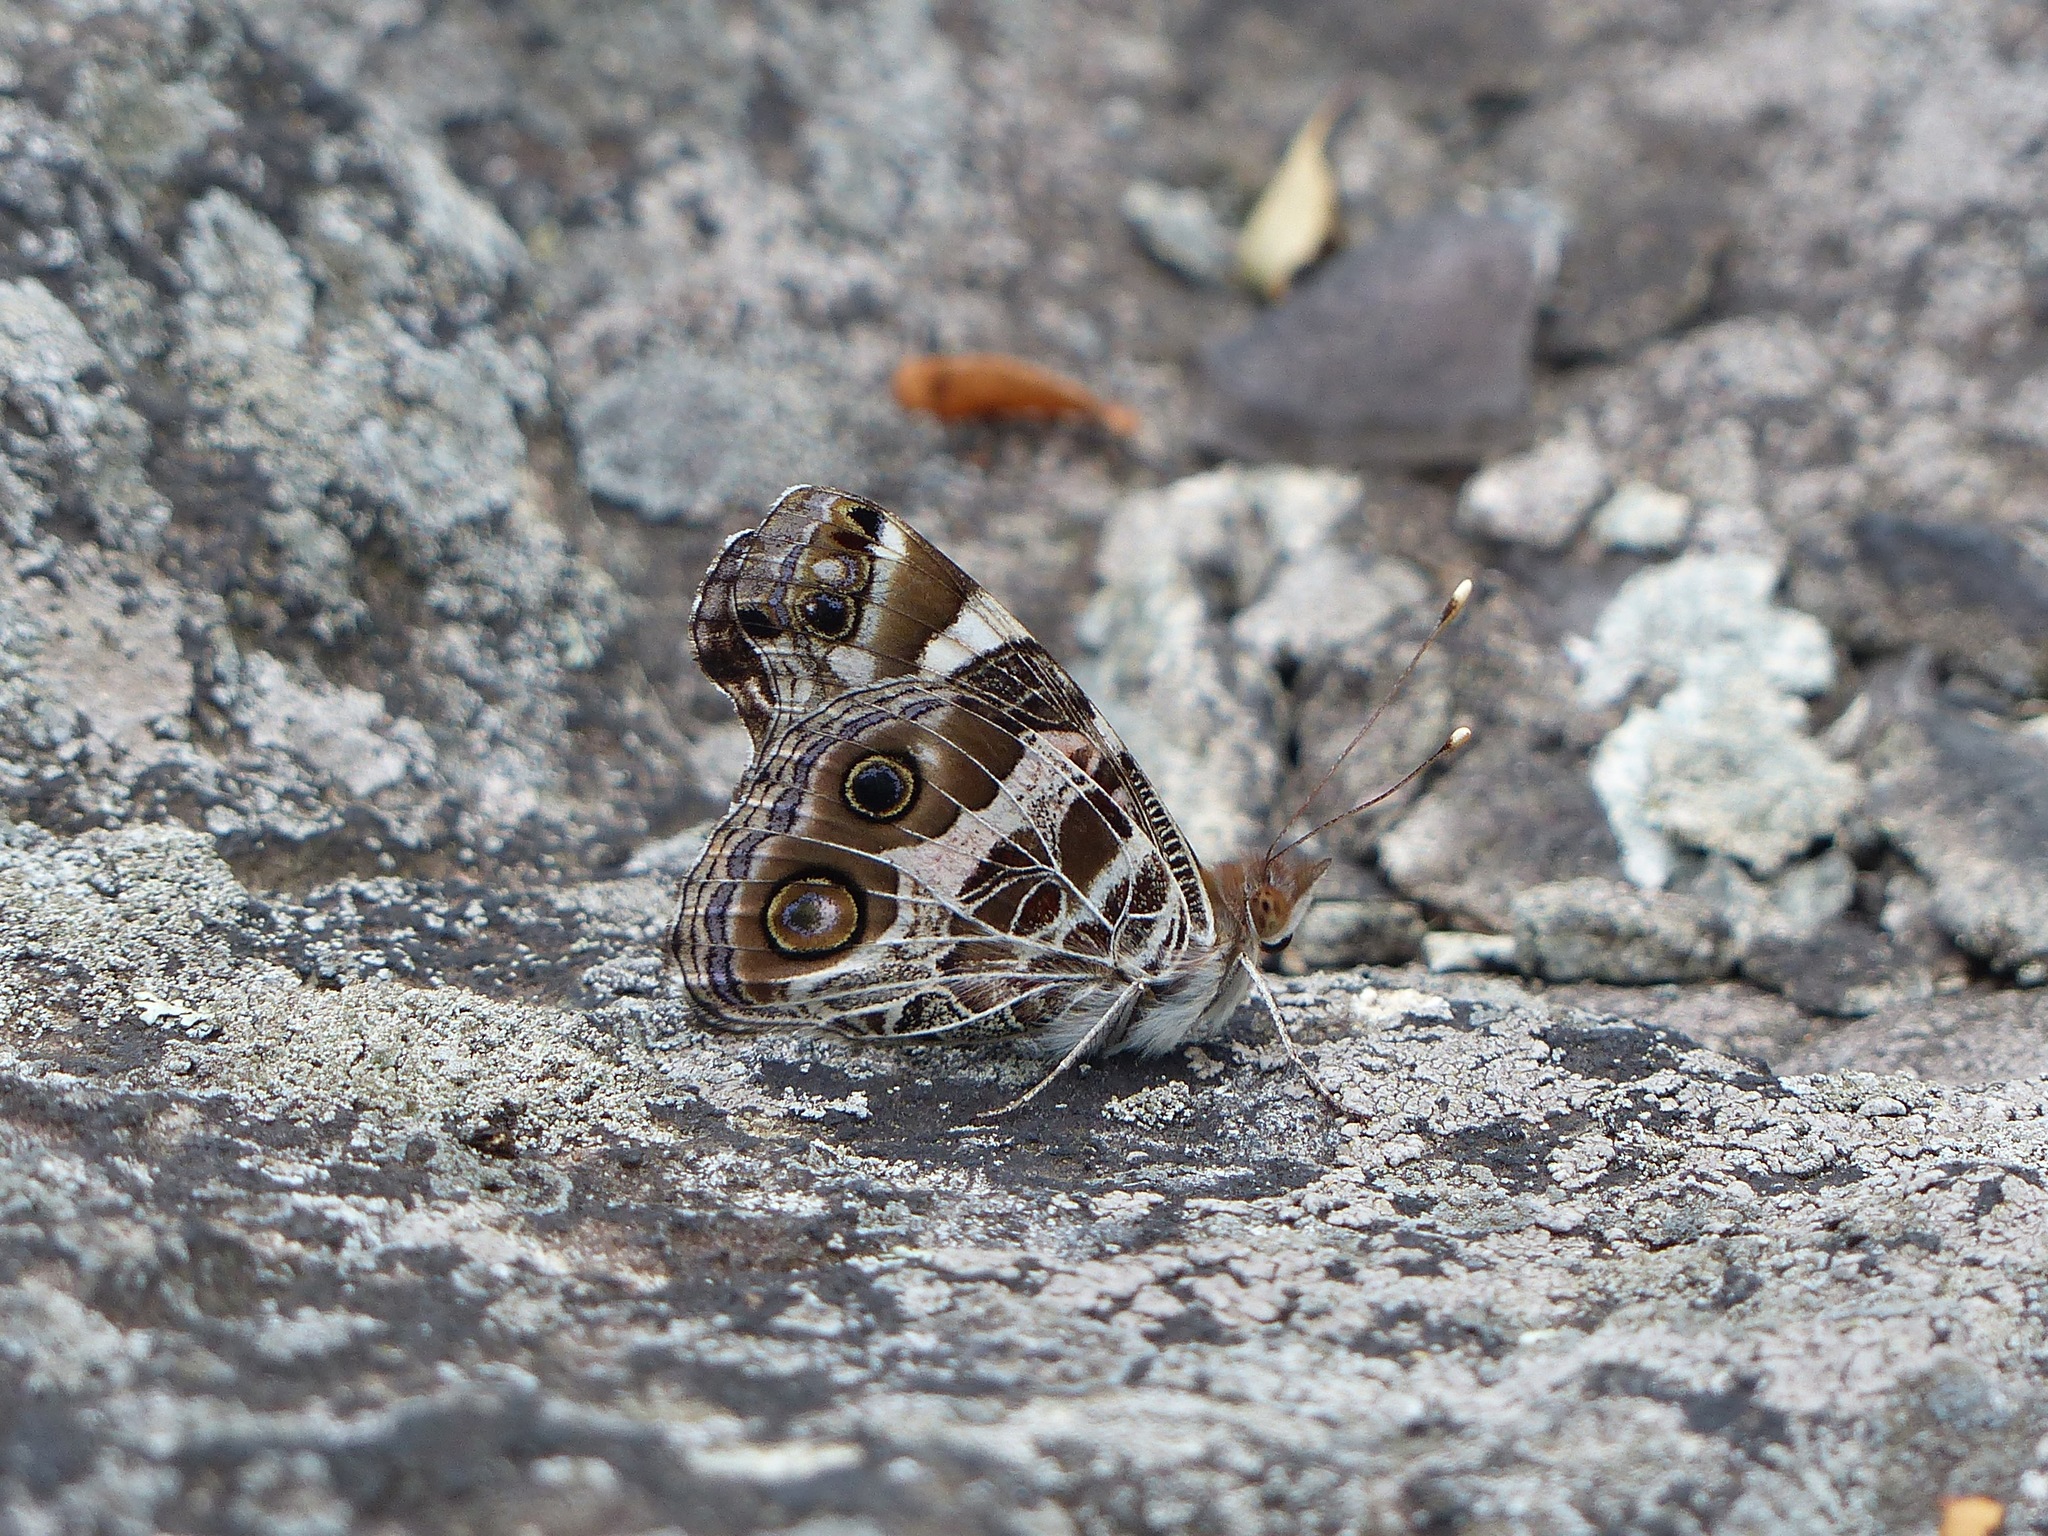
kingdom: Animalia
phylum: Arthropoda
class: Insecta
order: Lepidoptera
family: Nymphalidae
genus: Vanessa
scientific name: Vanessa virginiensis
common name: American lady
